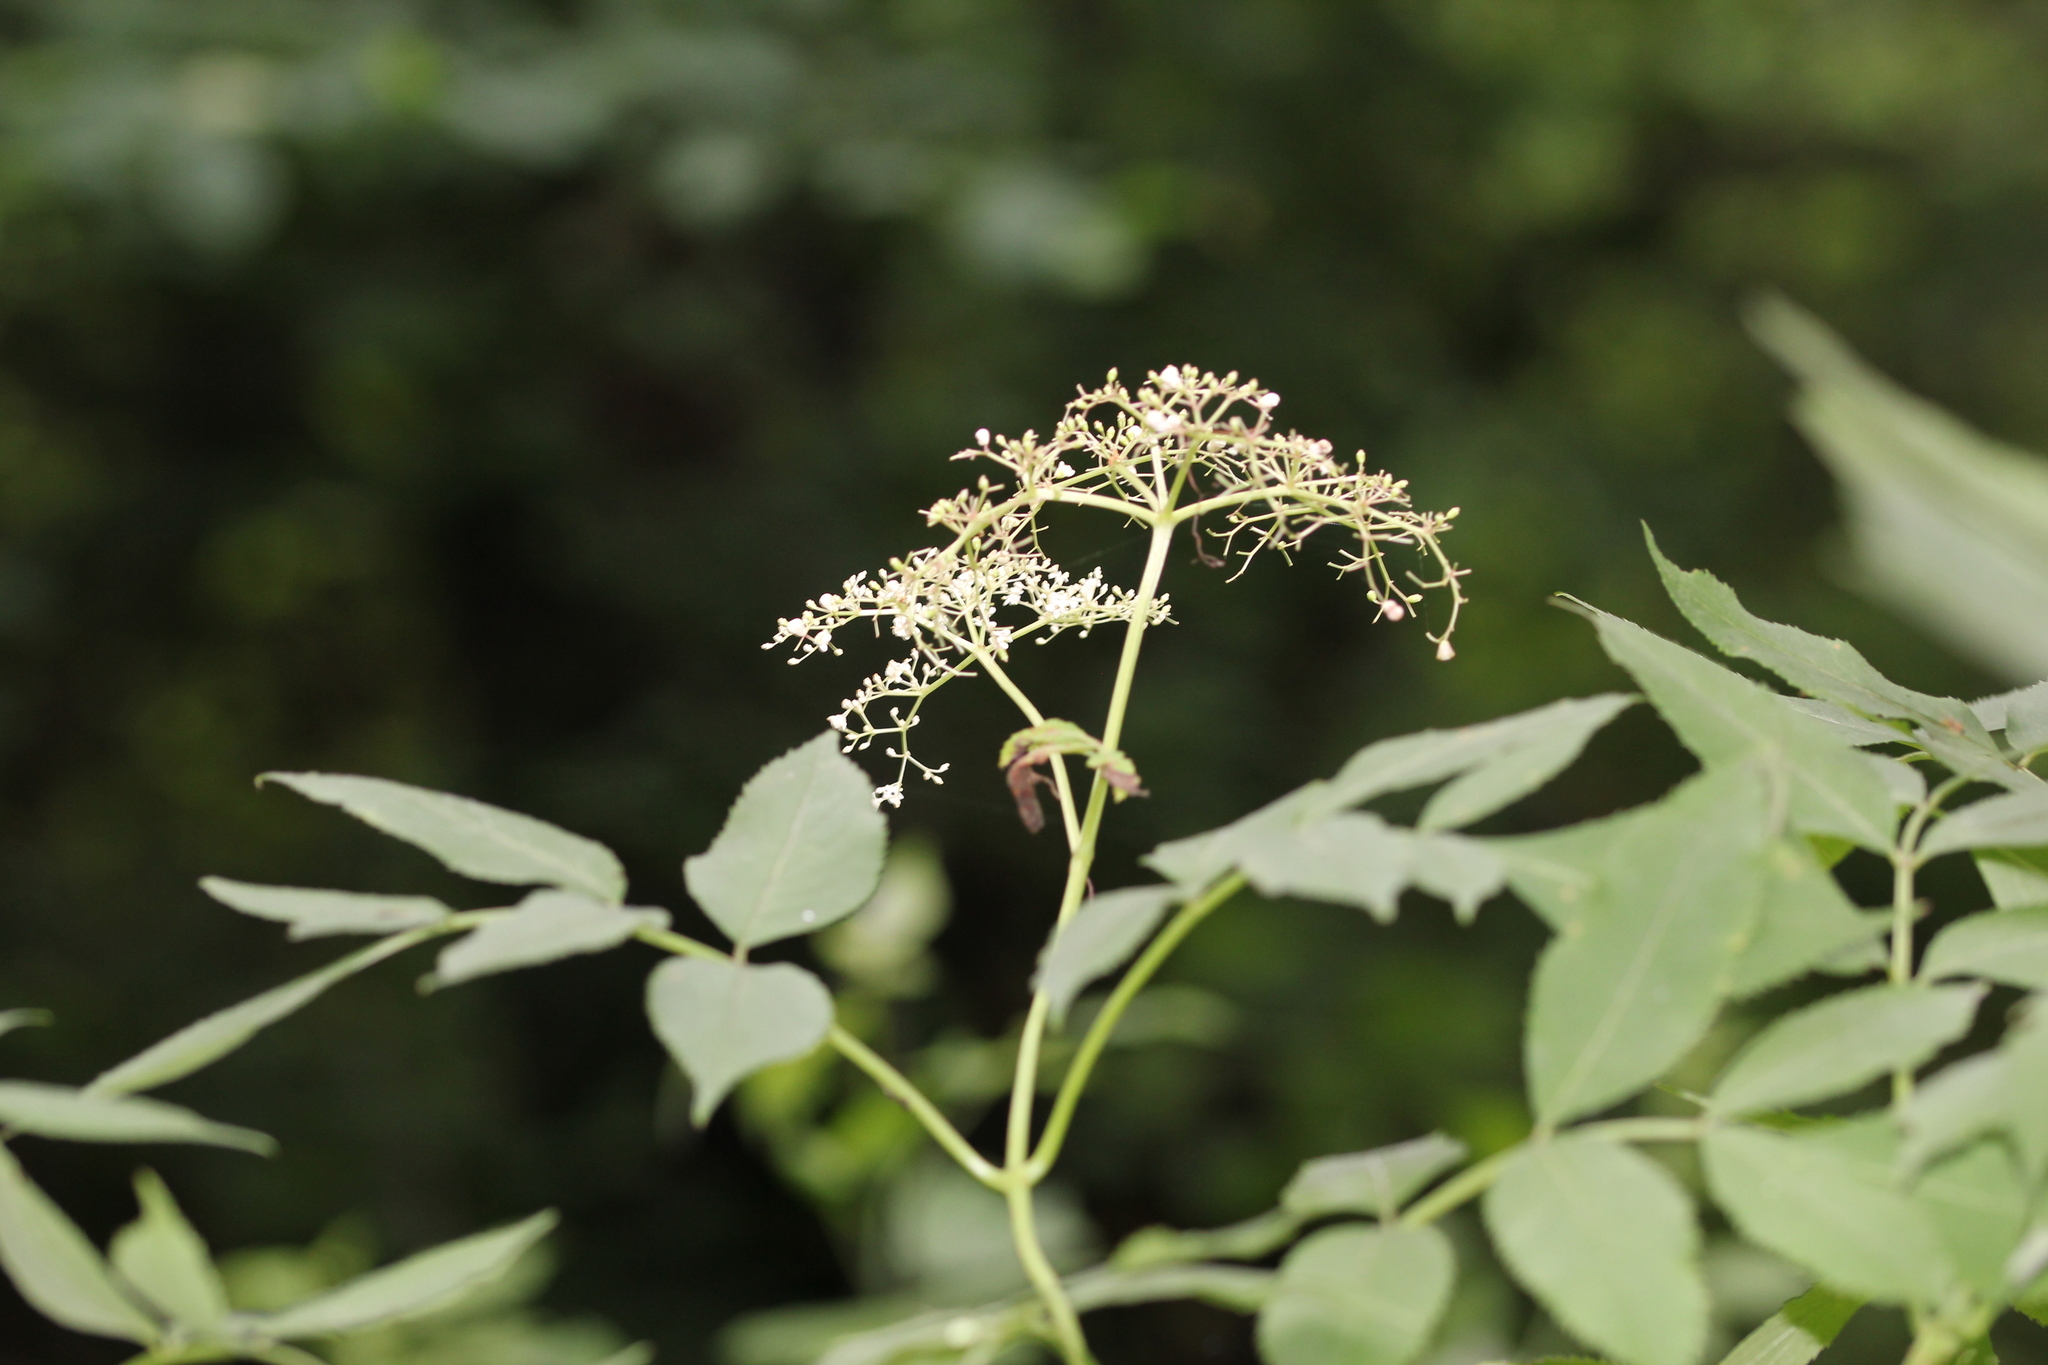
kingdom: Plantae
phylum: Tracheophyta
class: Magnoliopsida
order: Dipsacales
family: Viburnaceae
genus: Sambucus
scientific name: Sambucus canadensis
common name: American elder
